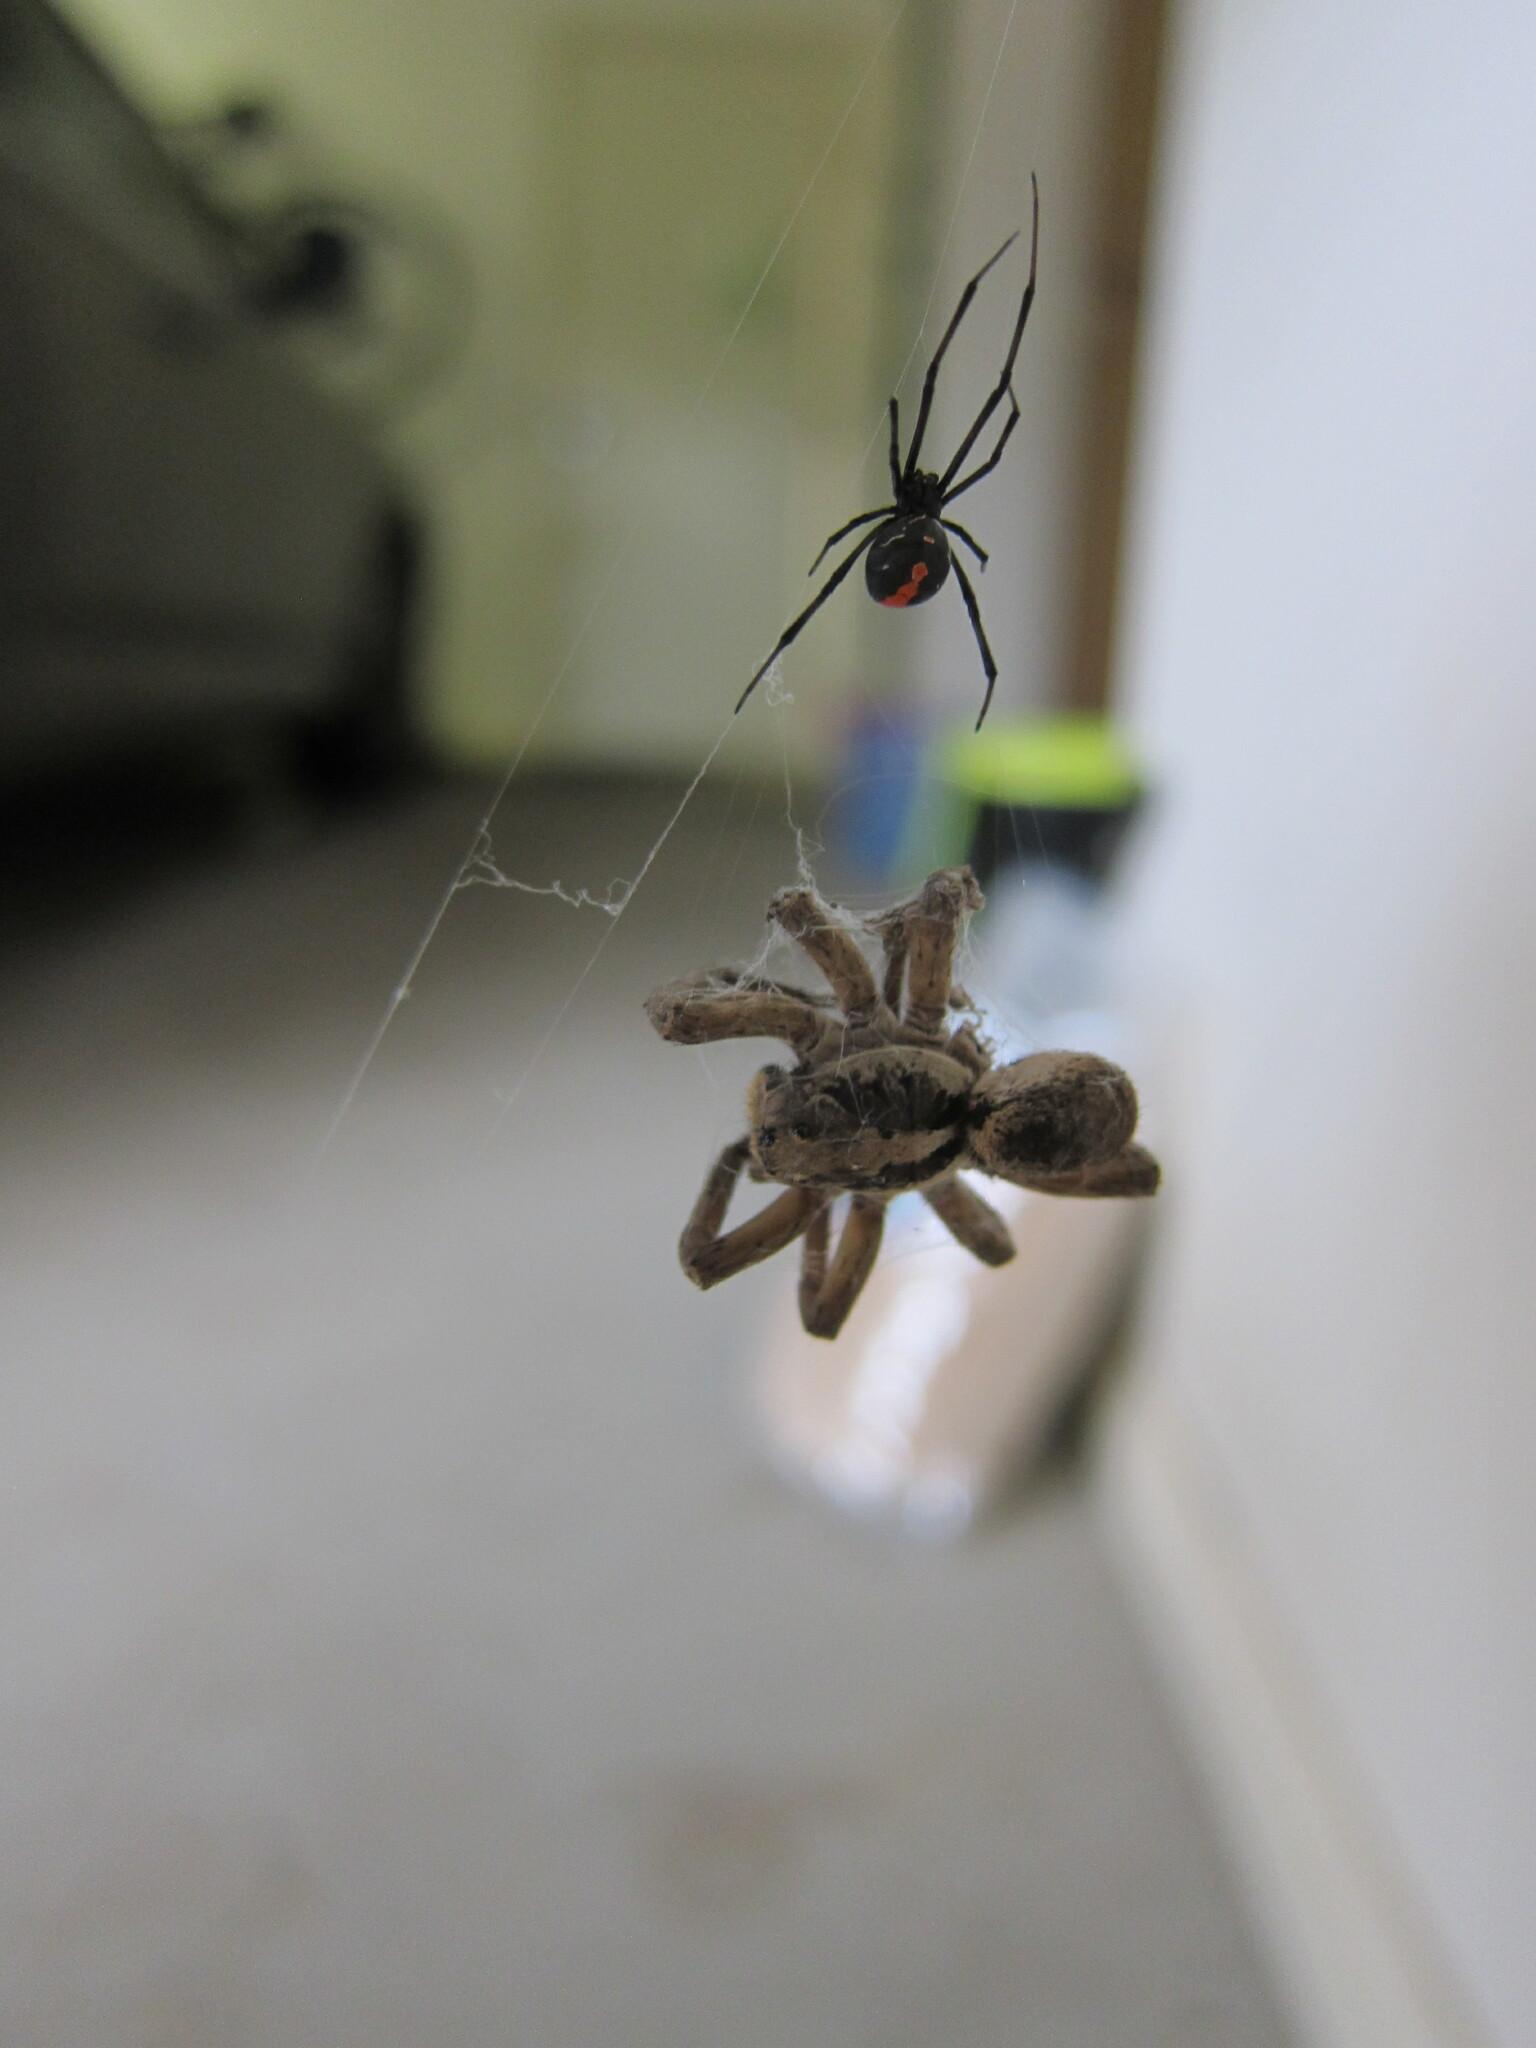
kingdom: Animalia
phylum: Arthropoda
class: Arachnida
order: Araneae
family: Theridiidae
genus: Latrodectus
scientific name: Latrodectus hasselti
